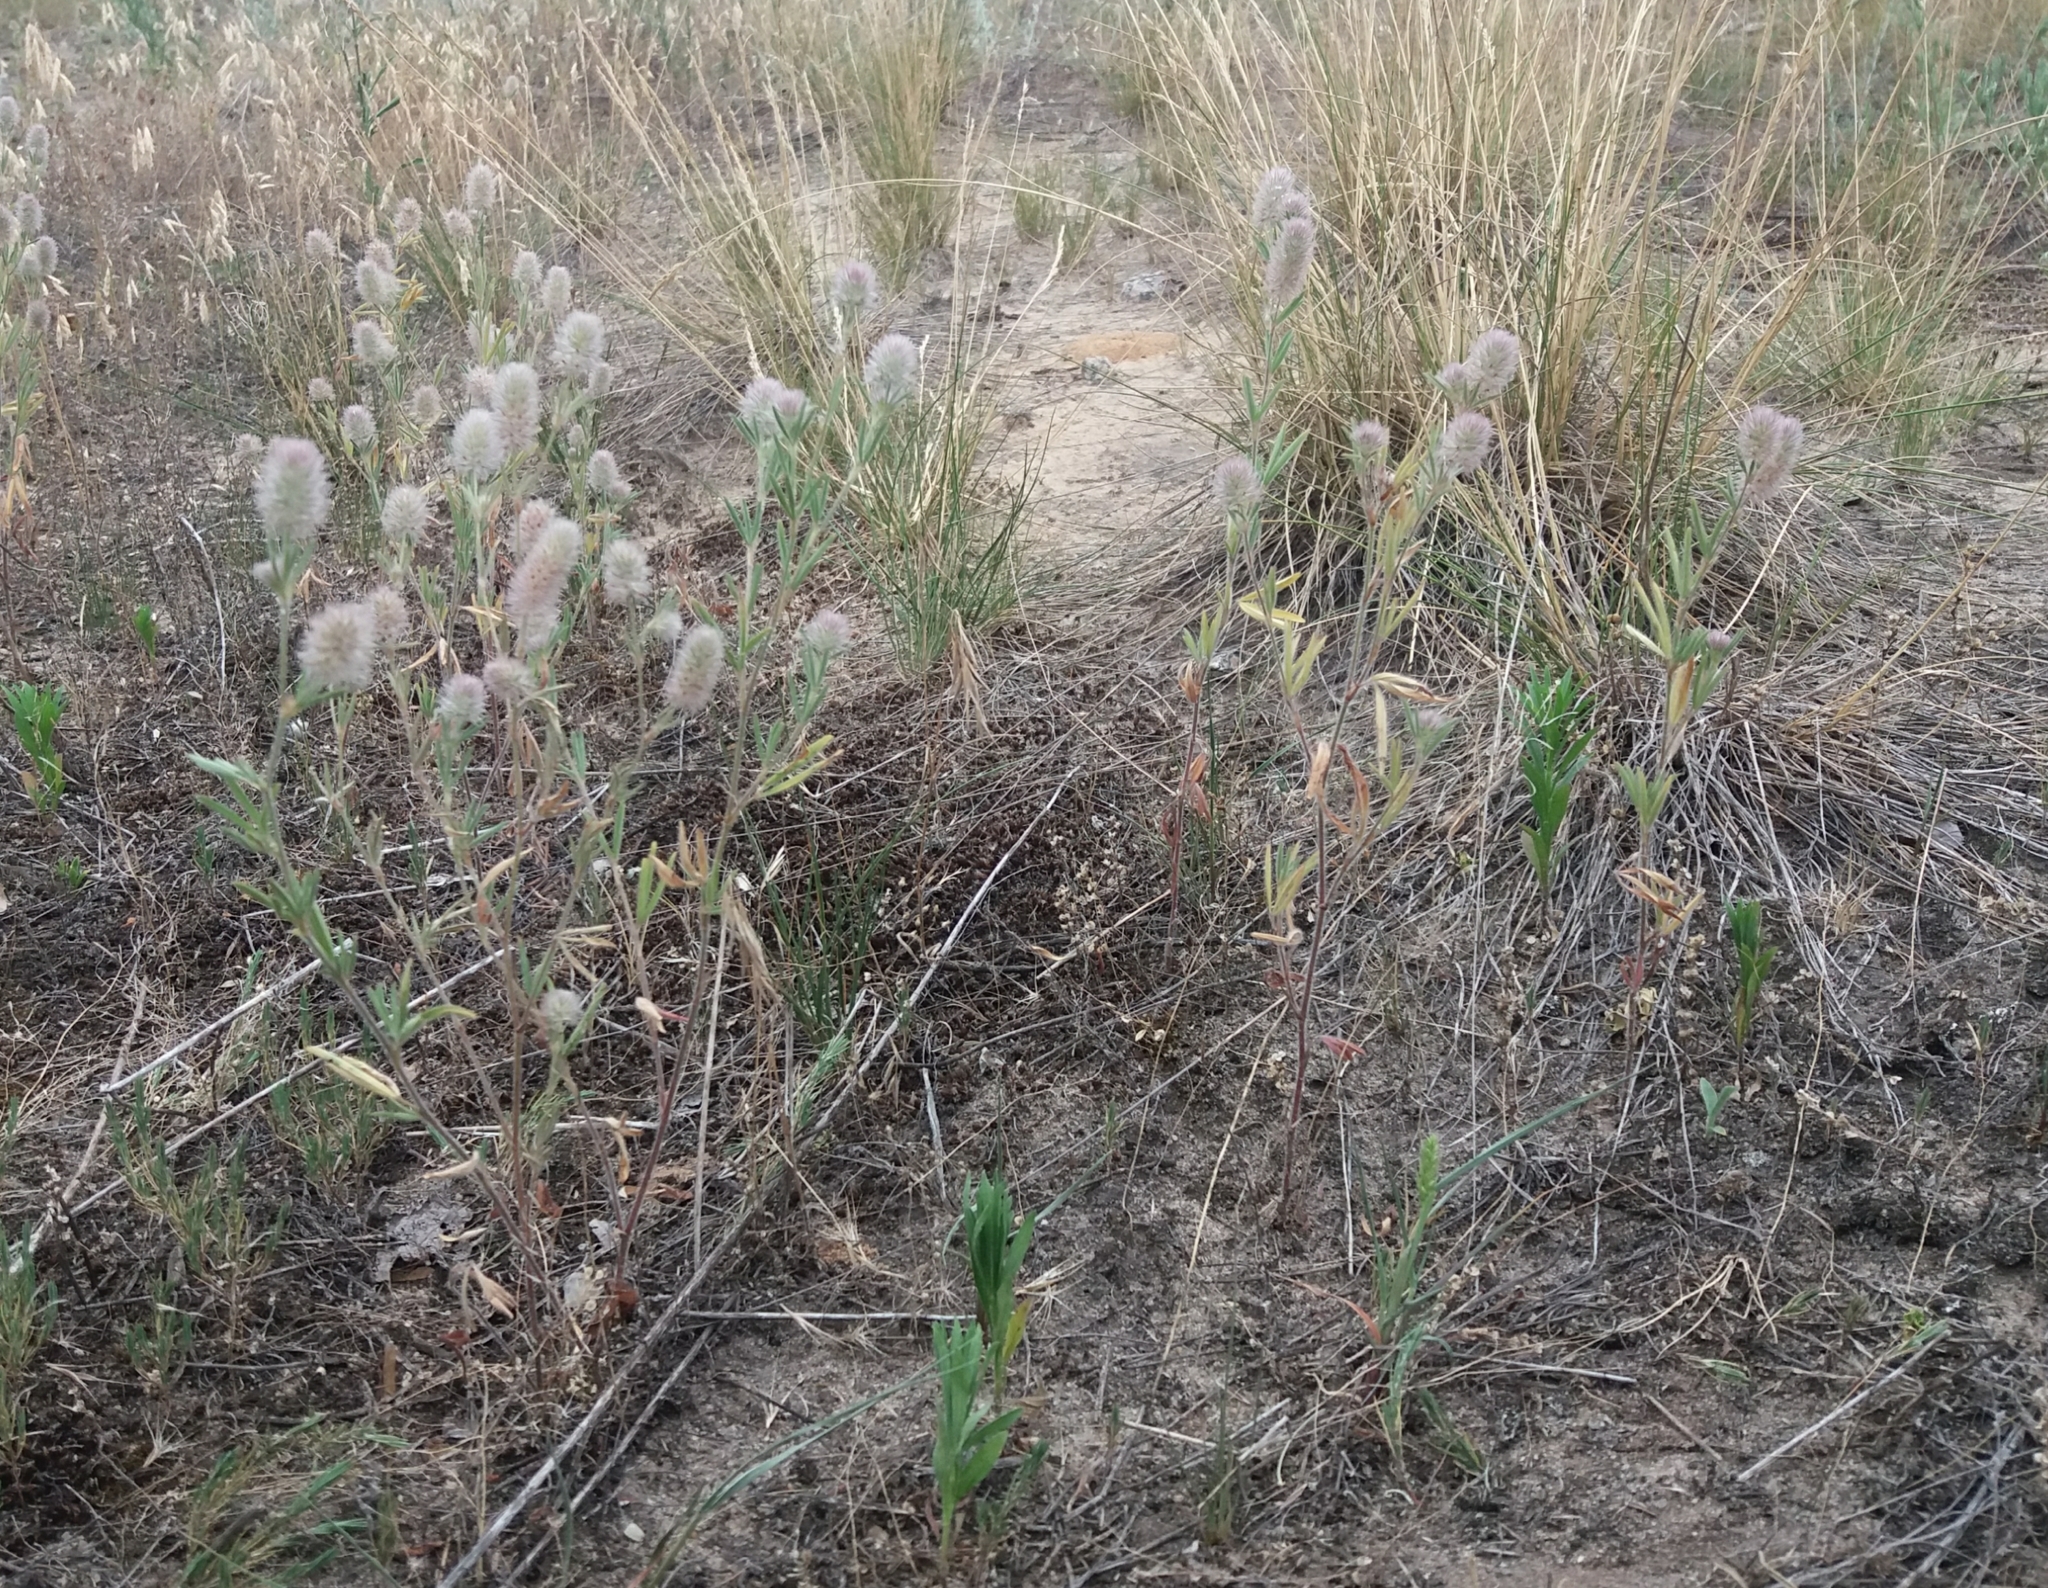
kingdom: Plantae
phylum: Tracheophyta
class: Magnoliopsida
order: Fabales
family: Fabaceae
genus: Trifolium
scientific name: Trifolium arvense
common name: Hare's-foot clover
